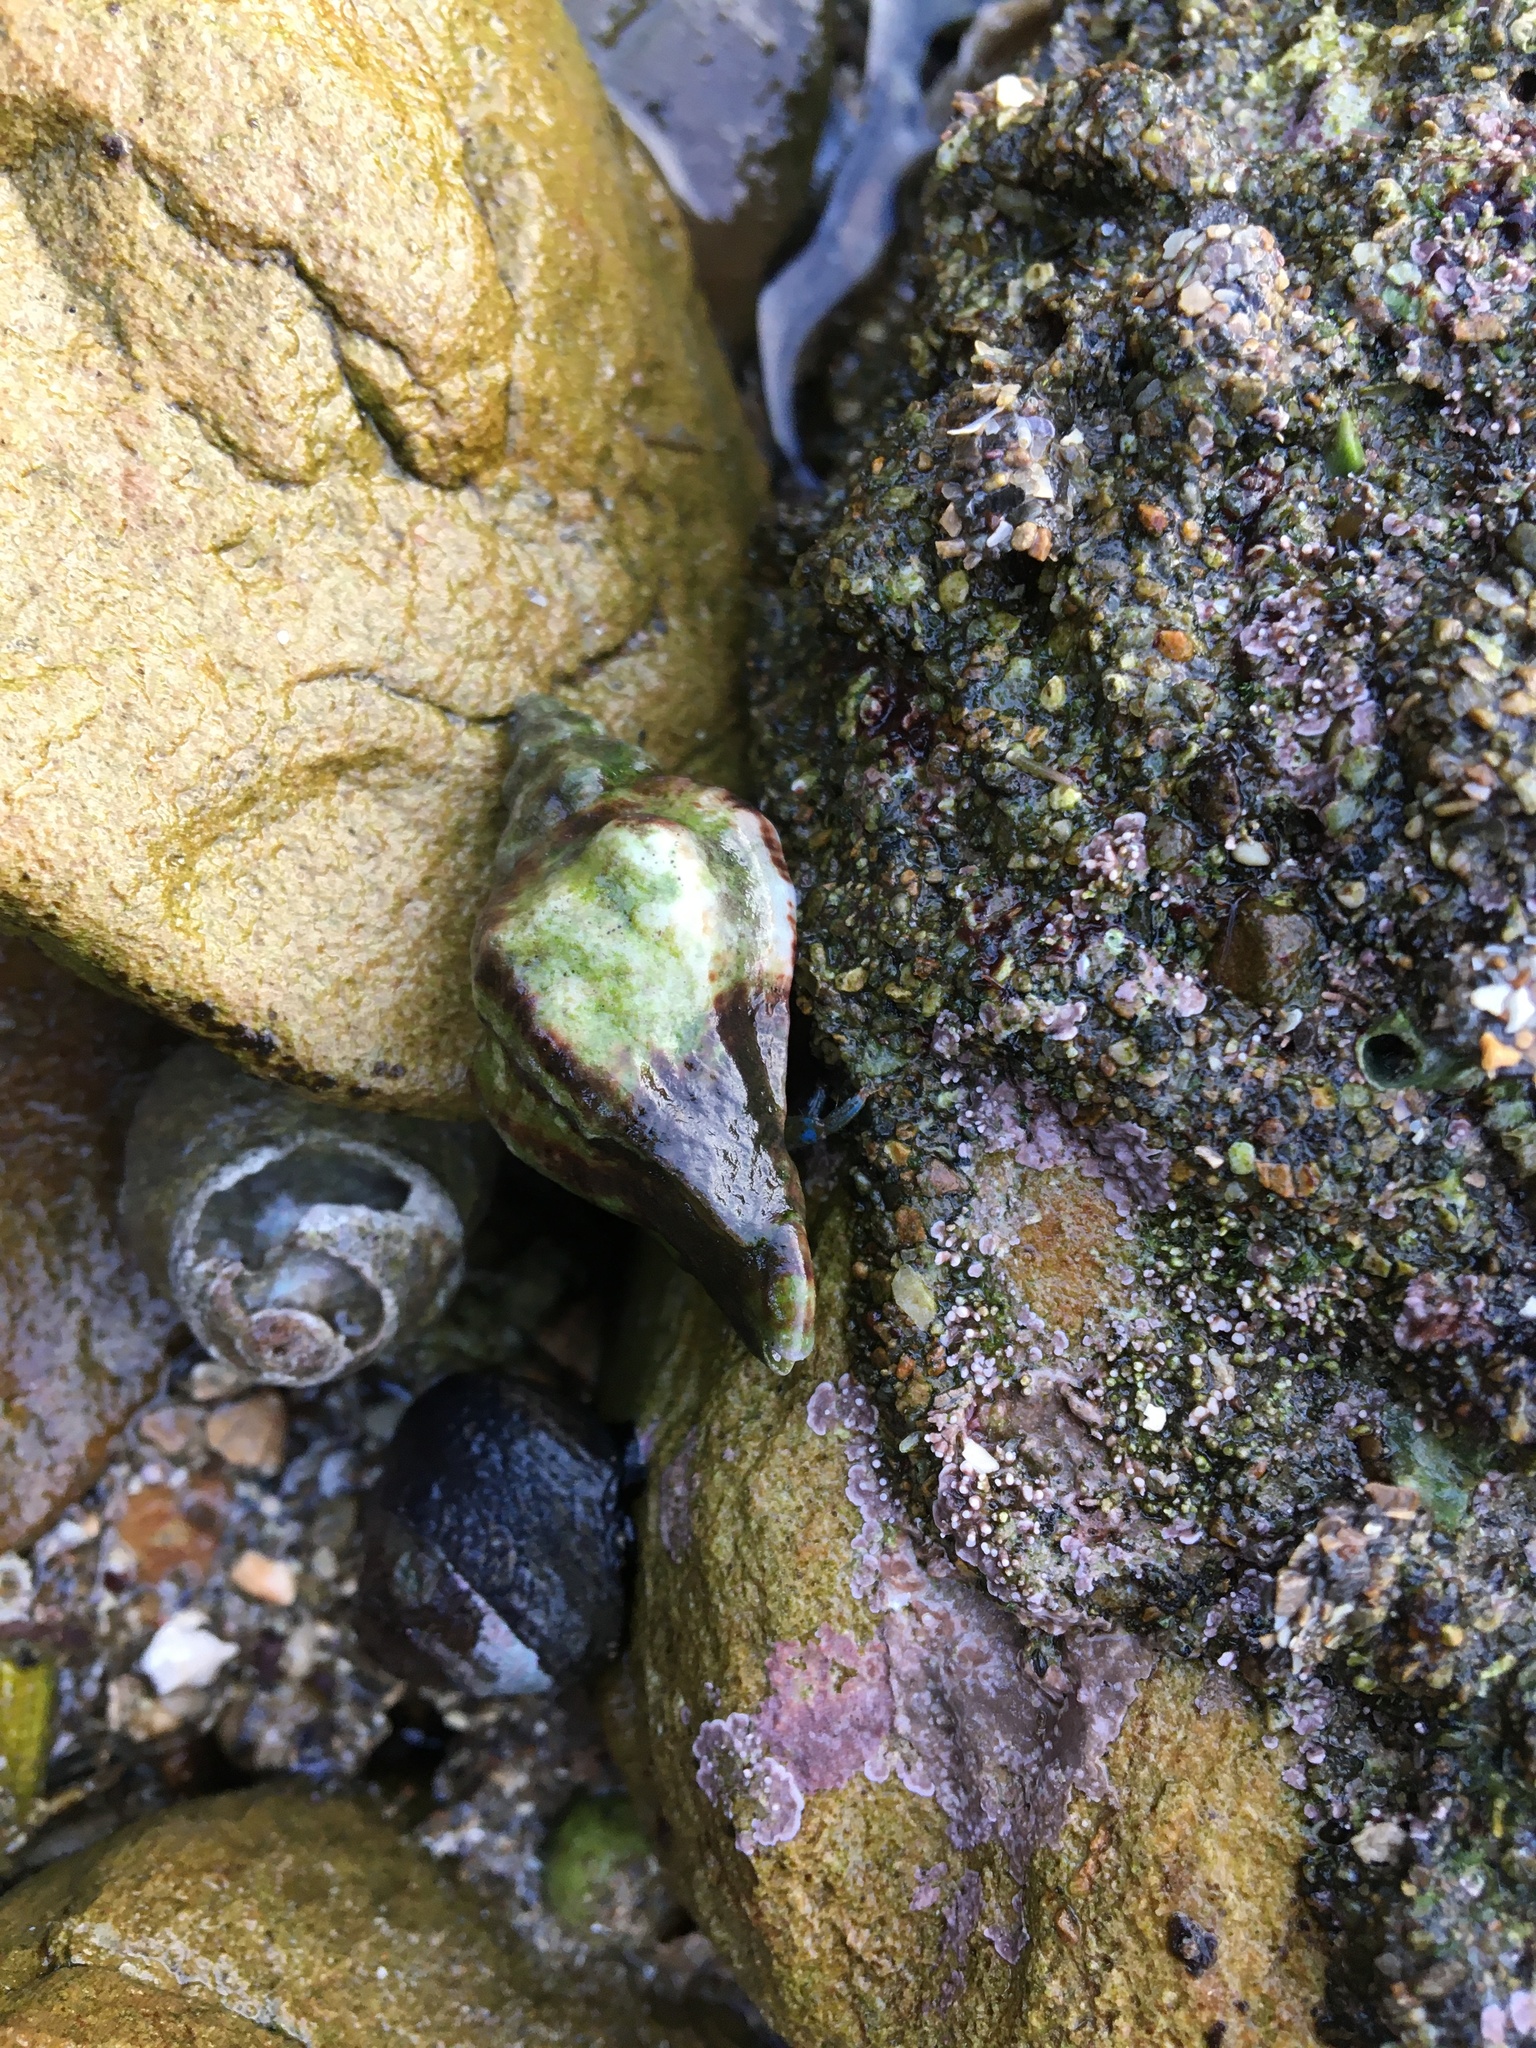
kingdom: Animalia
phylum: Mollusca
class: Gastropoda
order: Neogastropoda
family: Muricidae
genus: Ceratostoma
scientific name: Ceratostoma nuttalli
